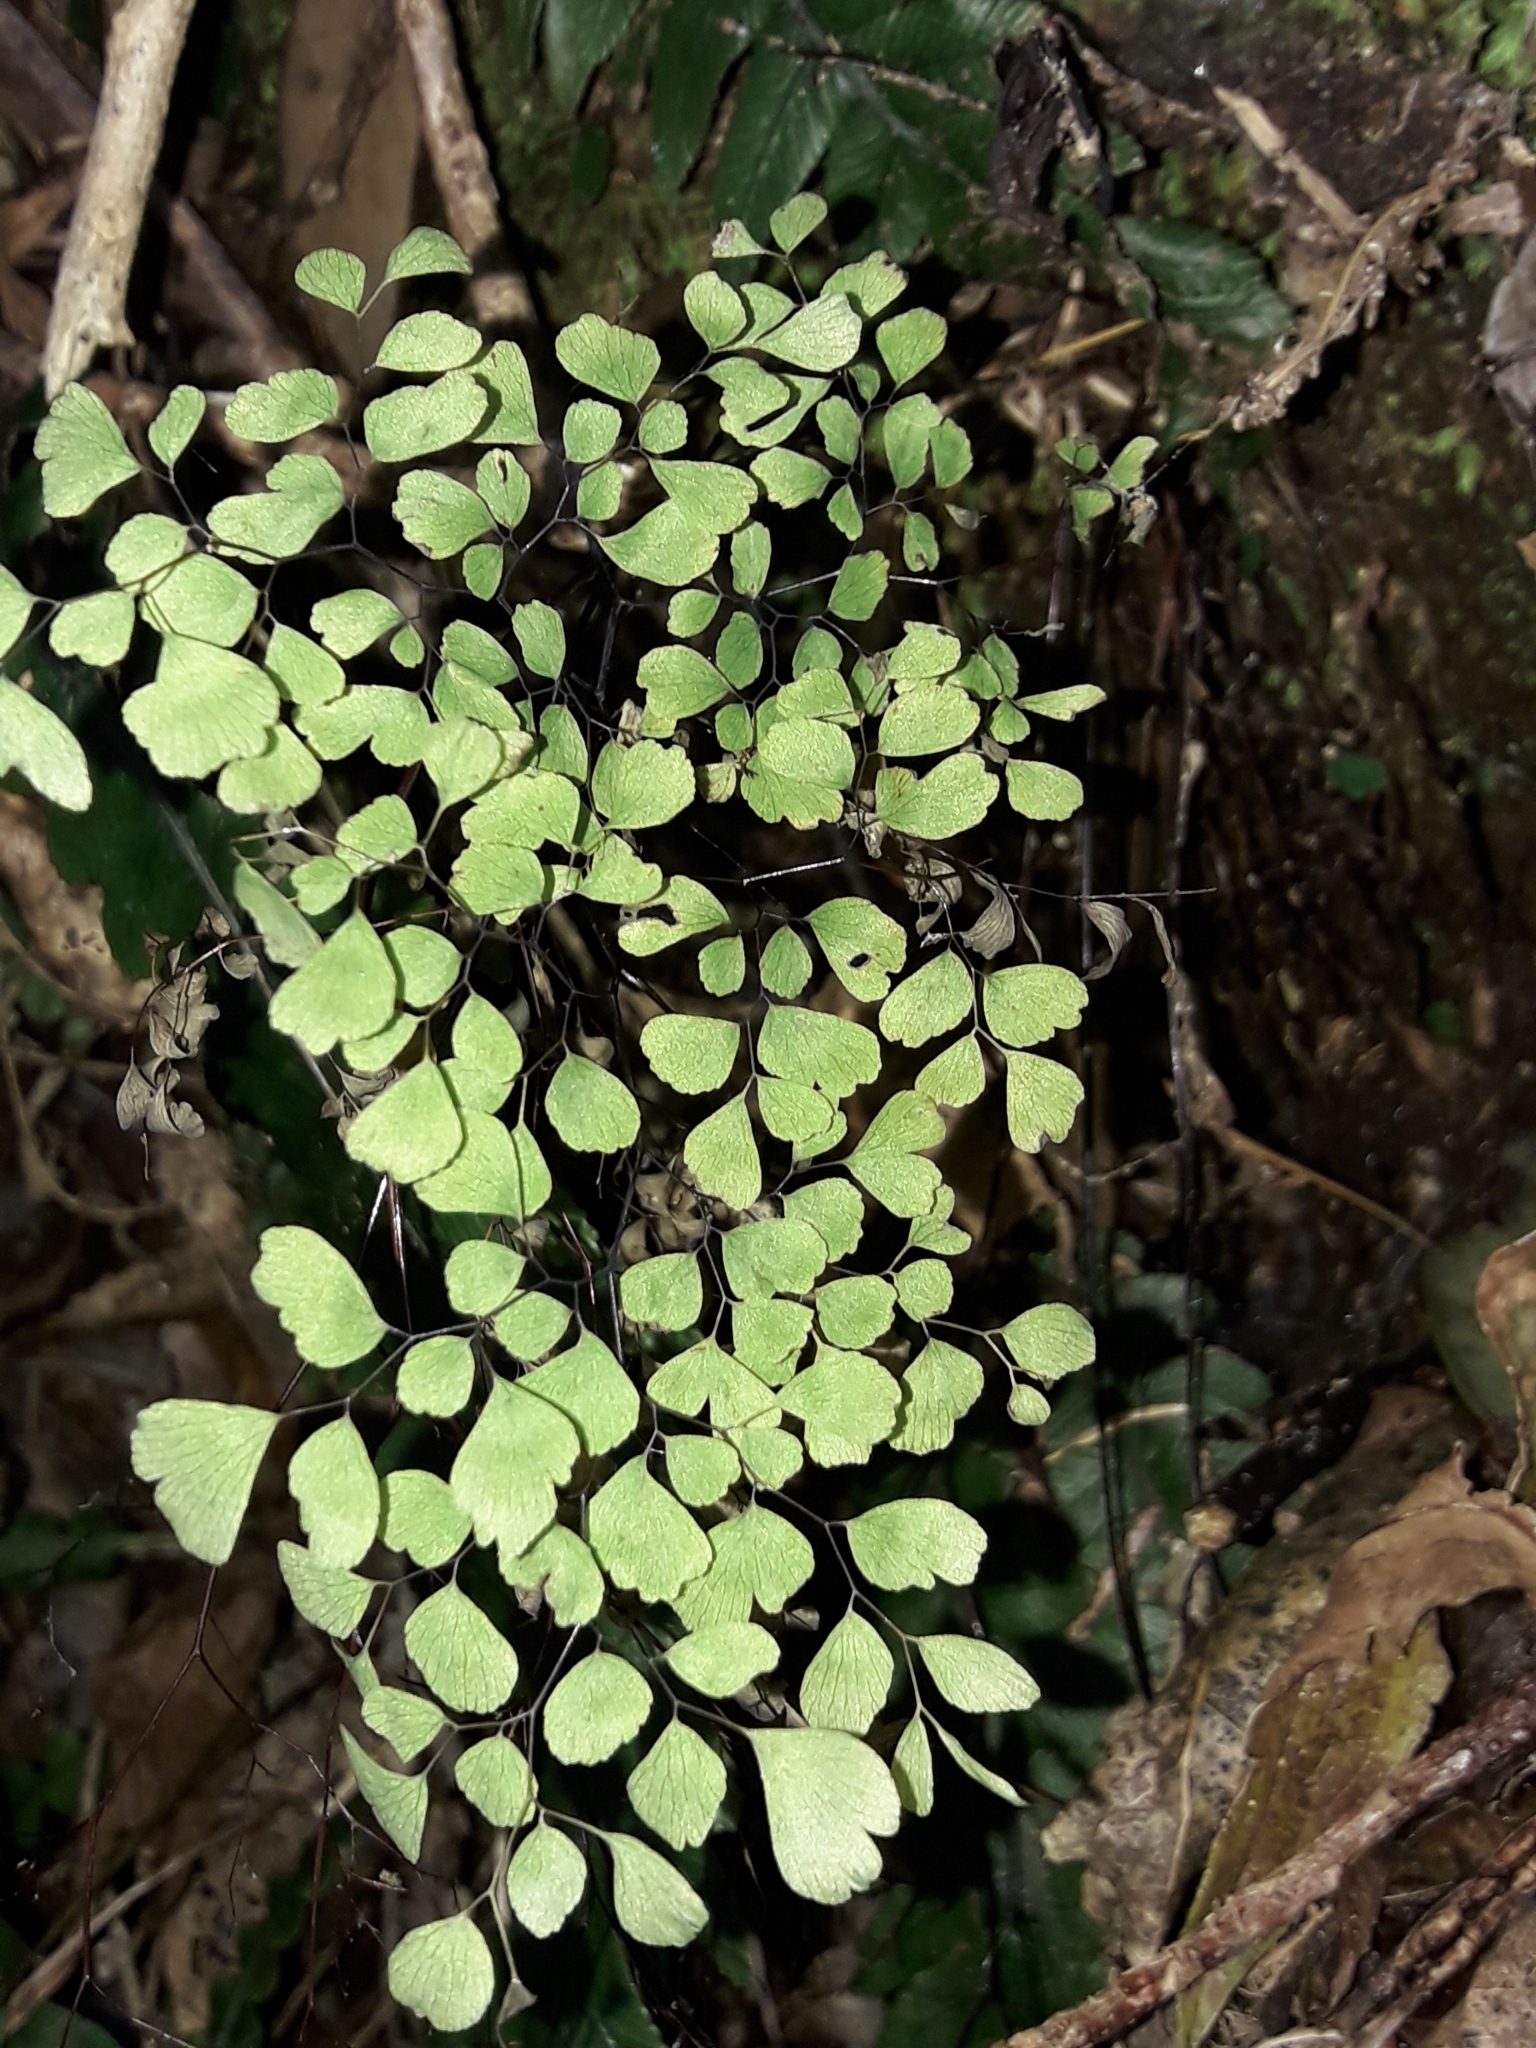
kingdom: Plantae
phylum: Tracheophyta
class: Polypodiopsida
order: Polypodiales
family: Pteridaceae
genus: Adiantum
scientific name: Adiantum raddianum
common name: Delta maidenhair fern
